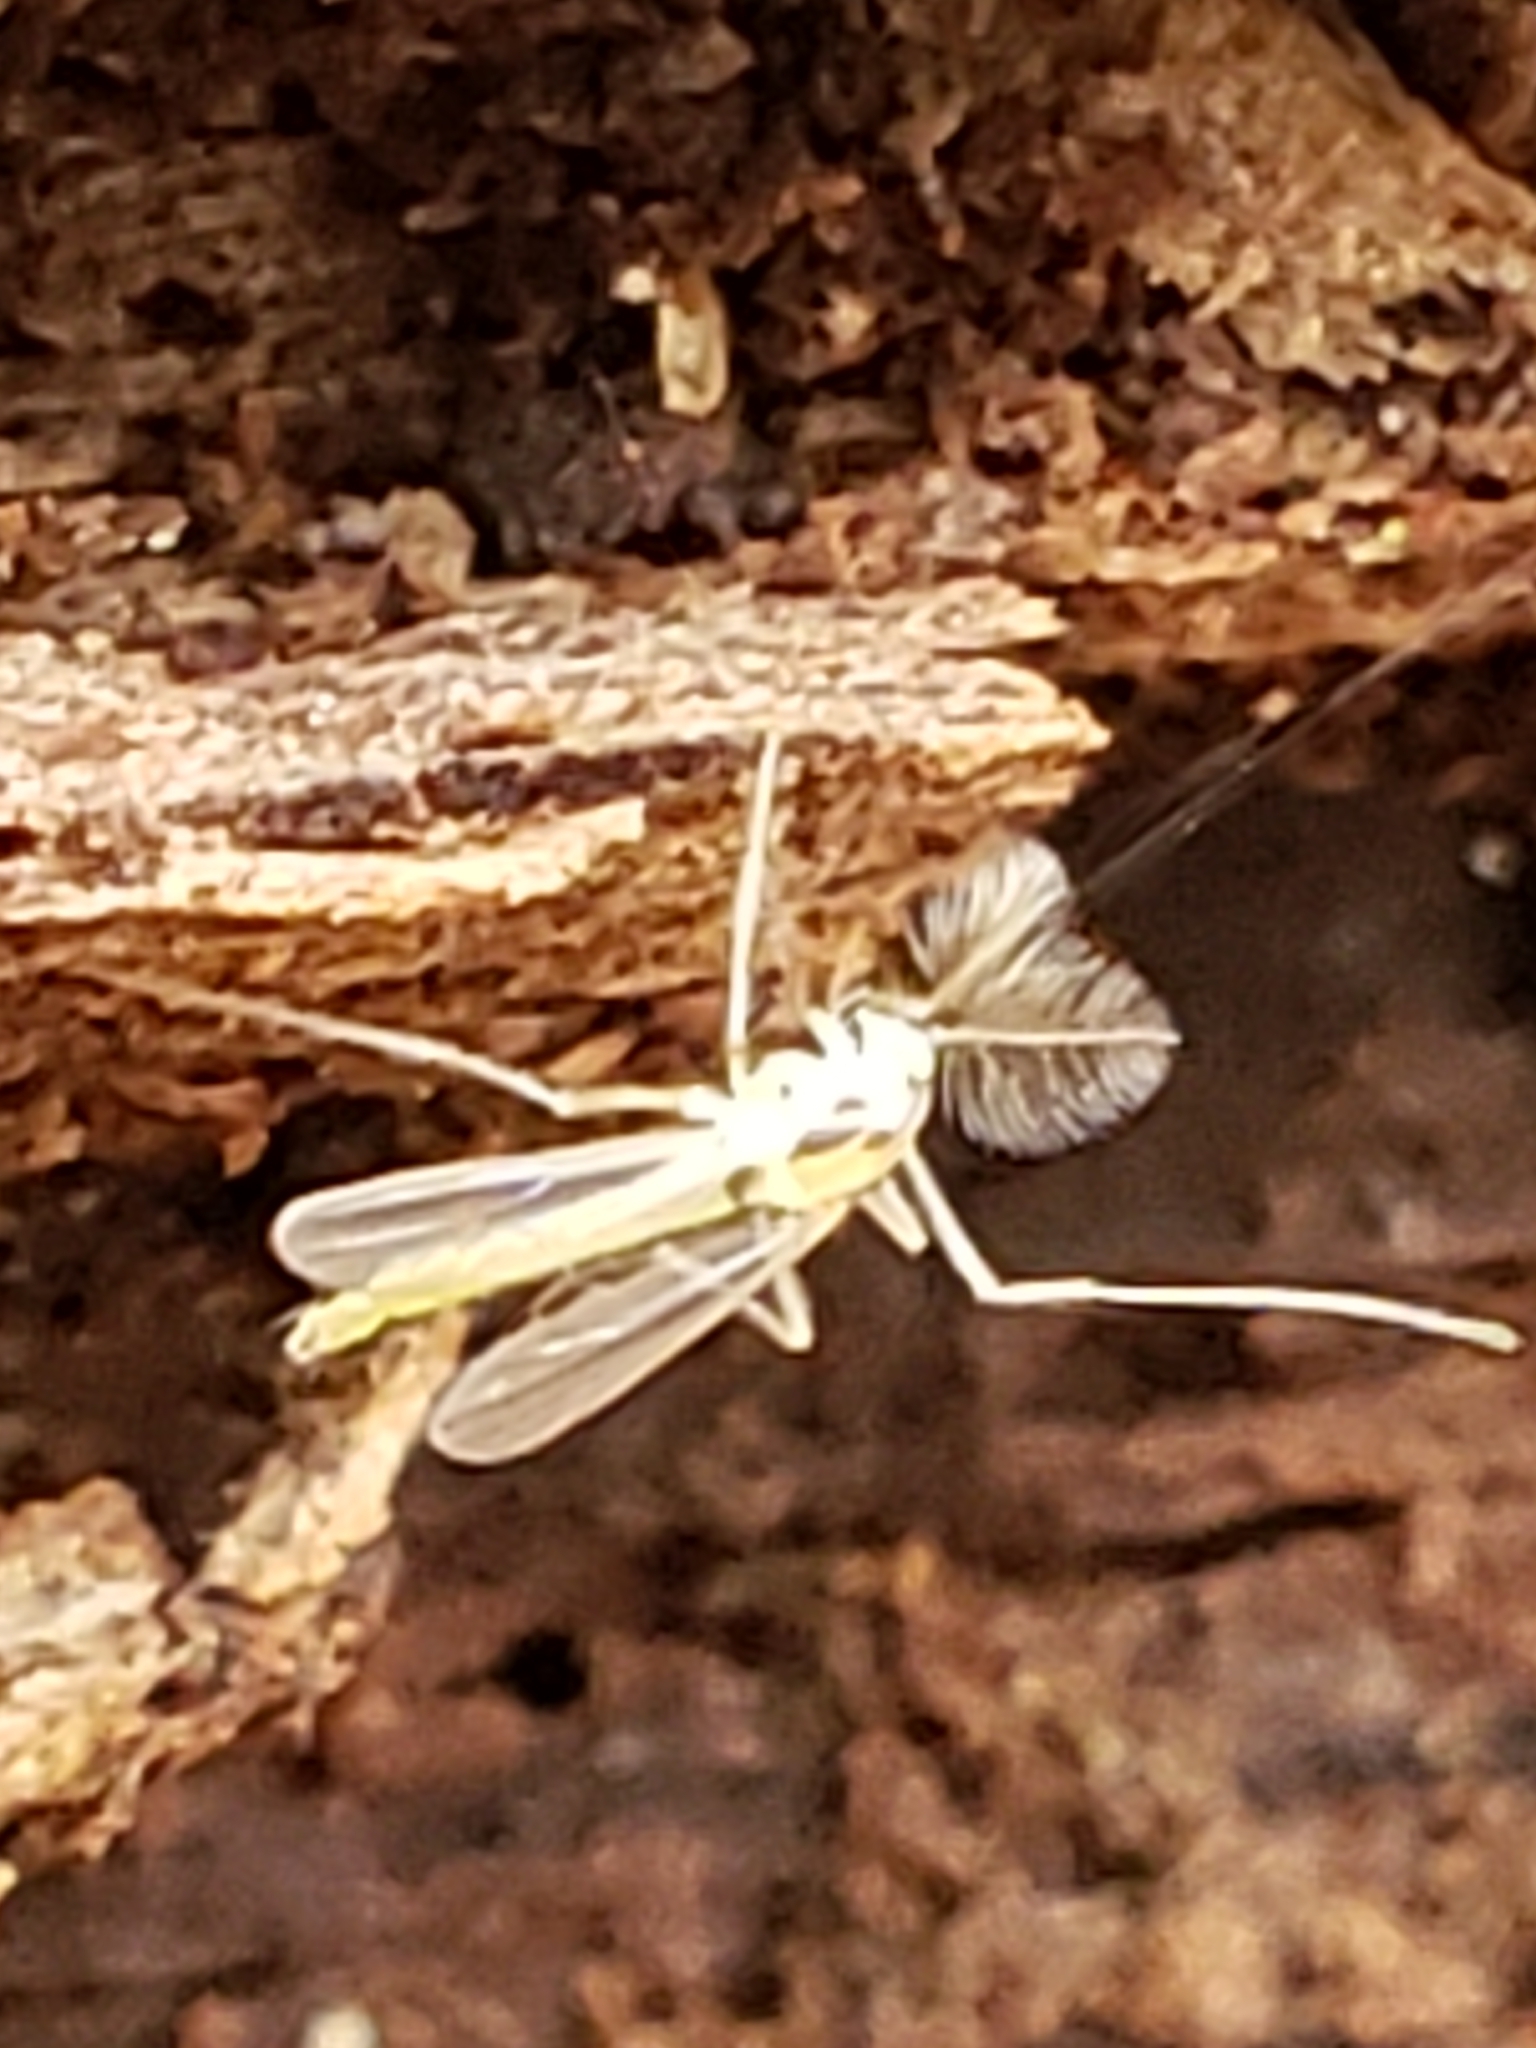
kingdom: Animalia
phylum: Arthropoda
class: Insecta
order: Diptera
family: Chironomidae
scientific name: Chironomidae
